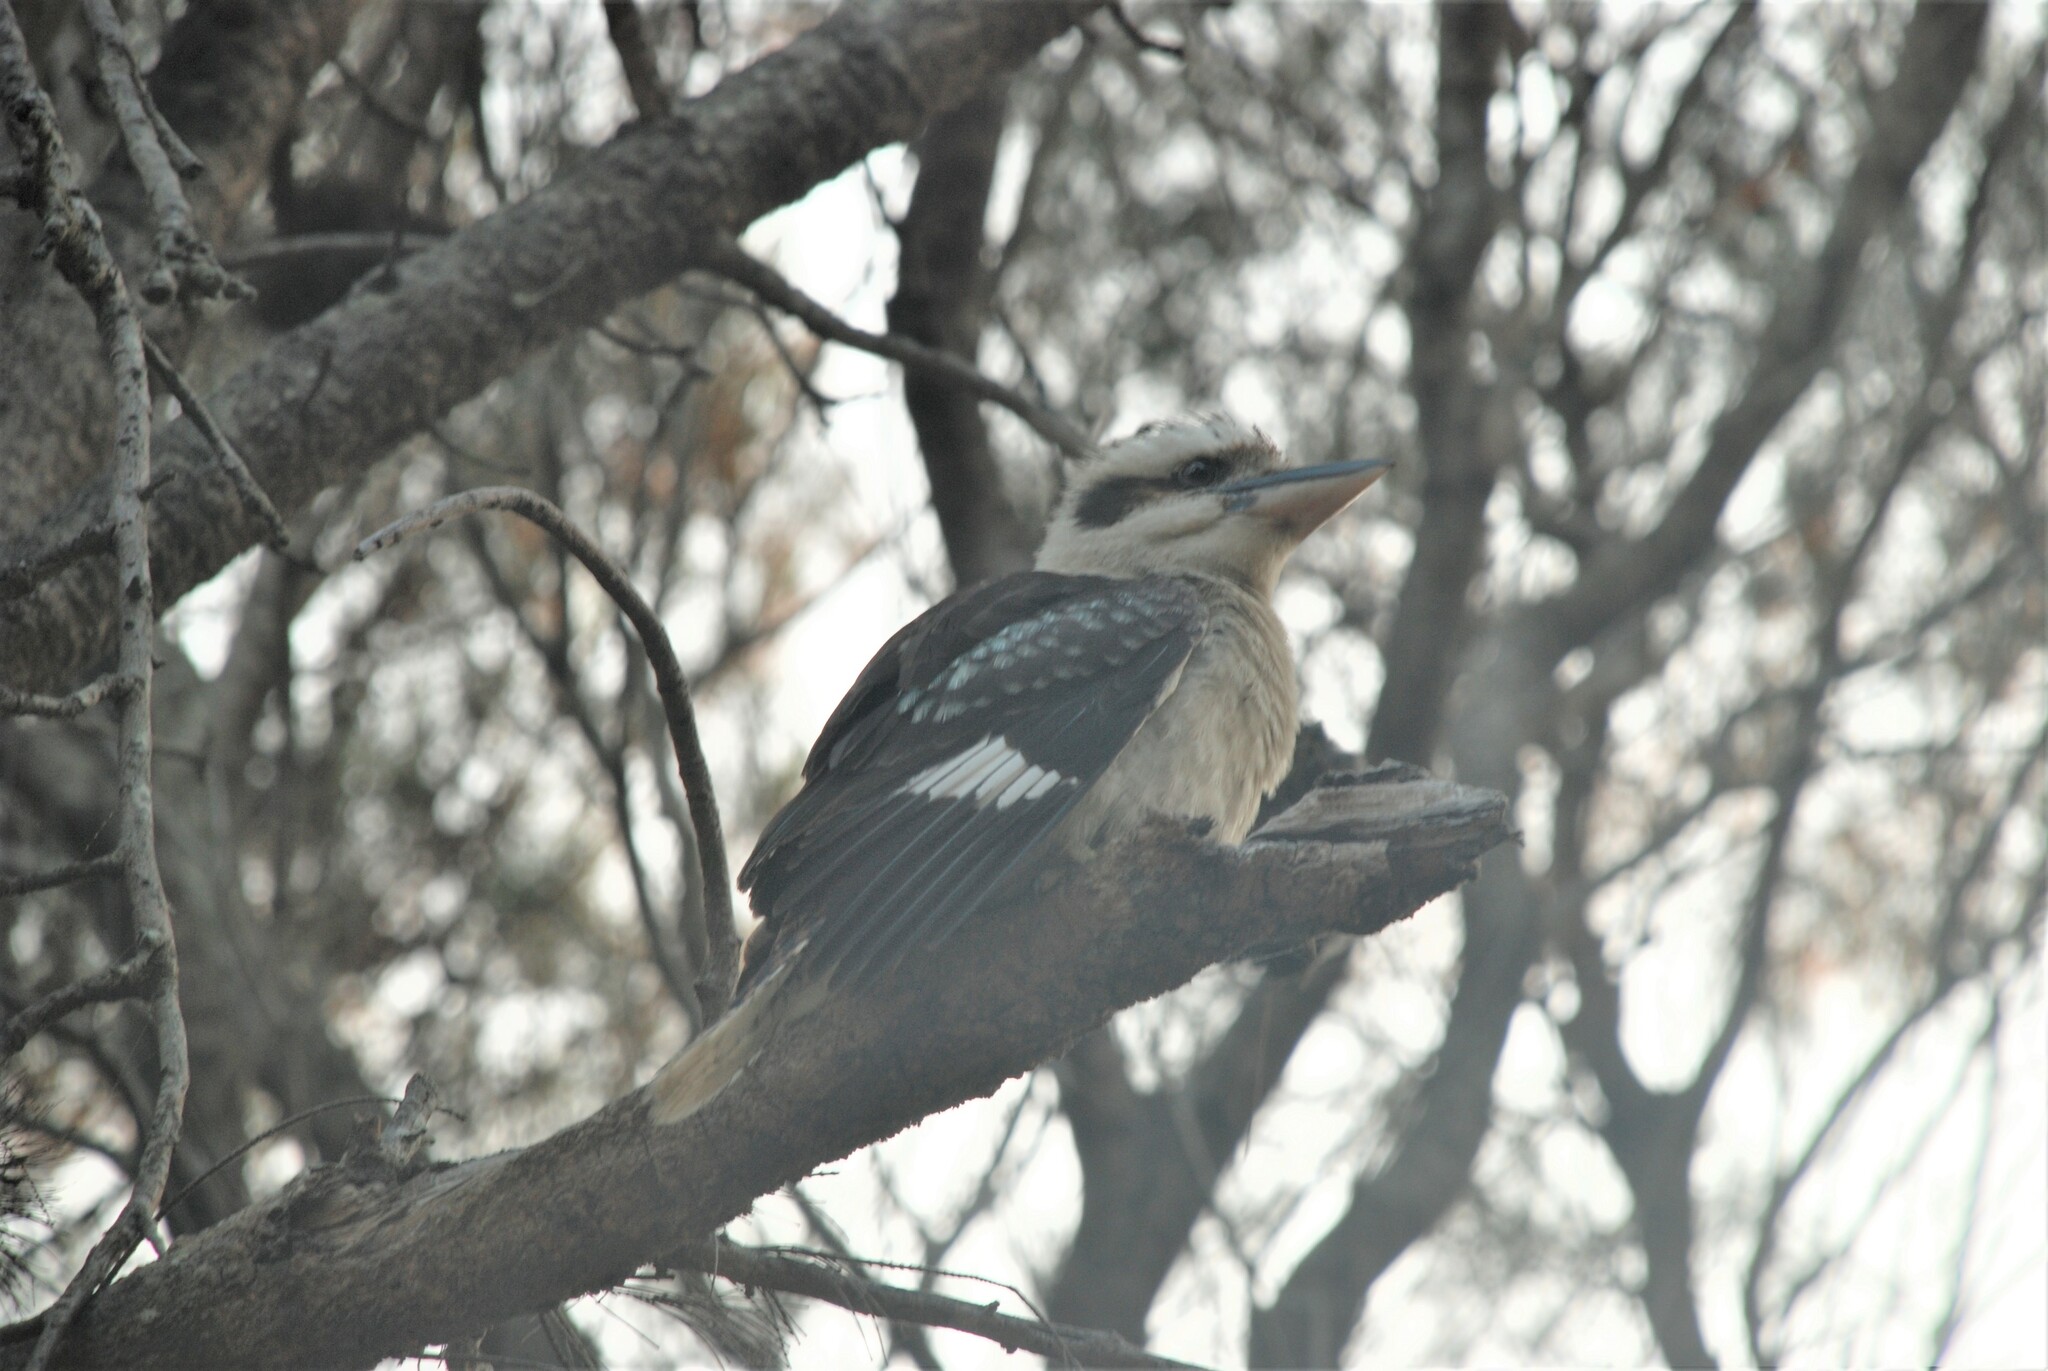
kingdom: Animalia
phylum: Chordata
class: Aves
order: Coraciiformes
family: Alcedinidae
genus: Dacelo
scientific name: Dacelo novaeguineae
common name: Laughing kookaburra
